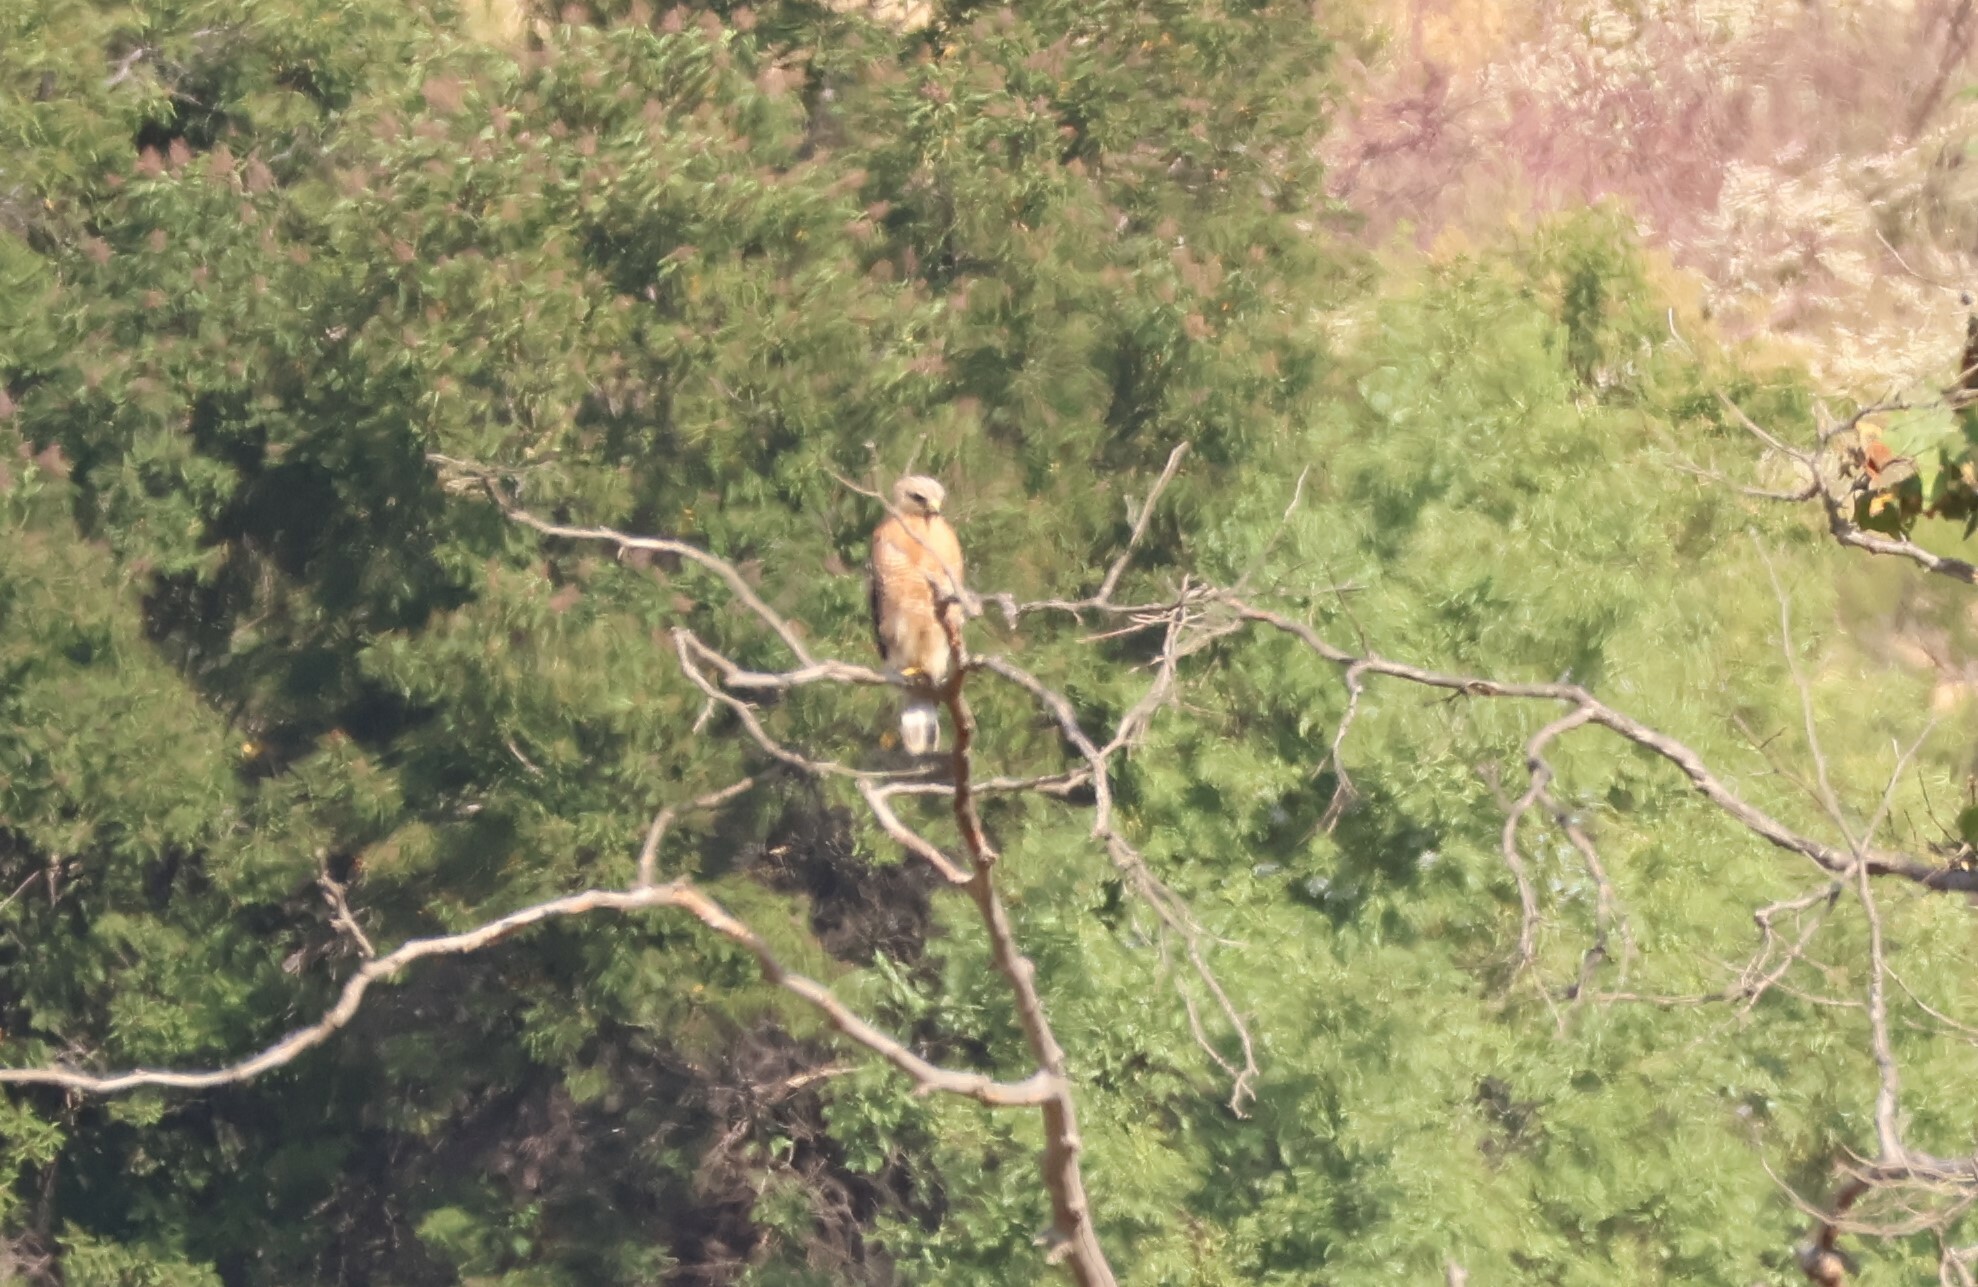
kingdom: Animalia
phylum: Chordata
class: Aves
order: Accipitriformes
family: Accipitridae
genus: Buteo
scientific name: Buteo lineatus
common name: Red-shouldered hawk
